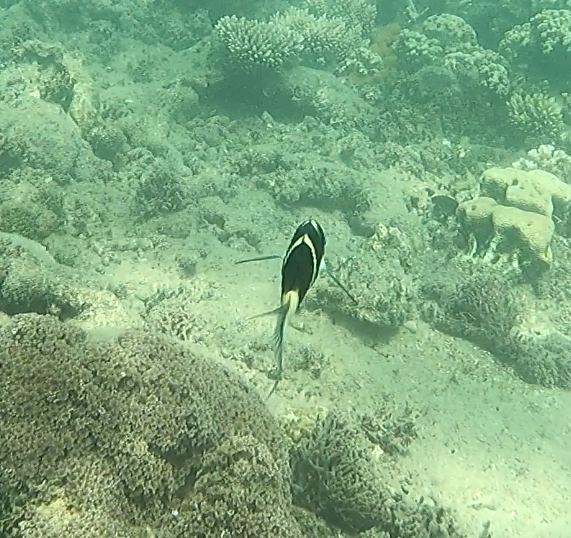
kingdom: Animalia
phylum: Chordata
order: Perciformes
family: Labridae
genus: Thalassoma
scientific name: Thalassoma nigrofasciatum
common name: Black-barred wrasse
